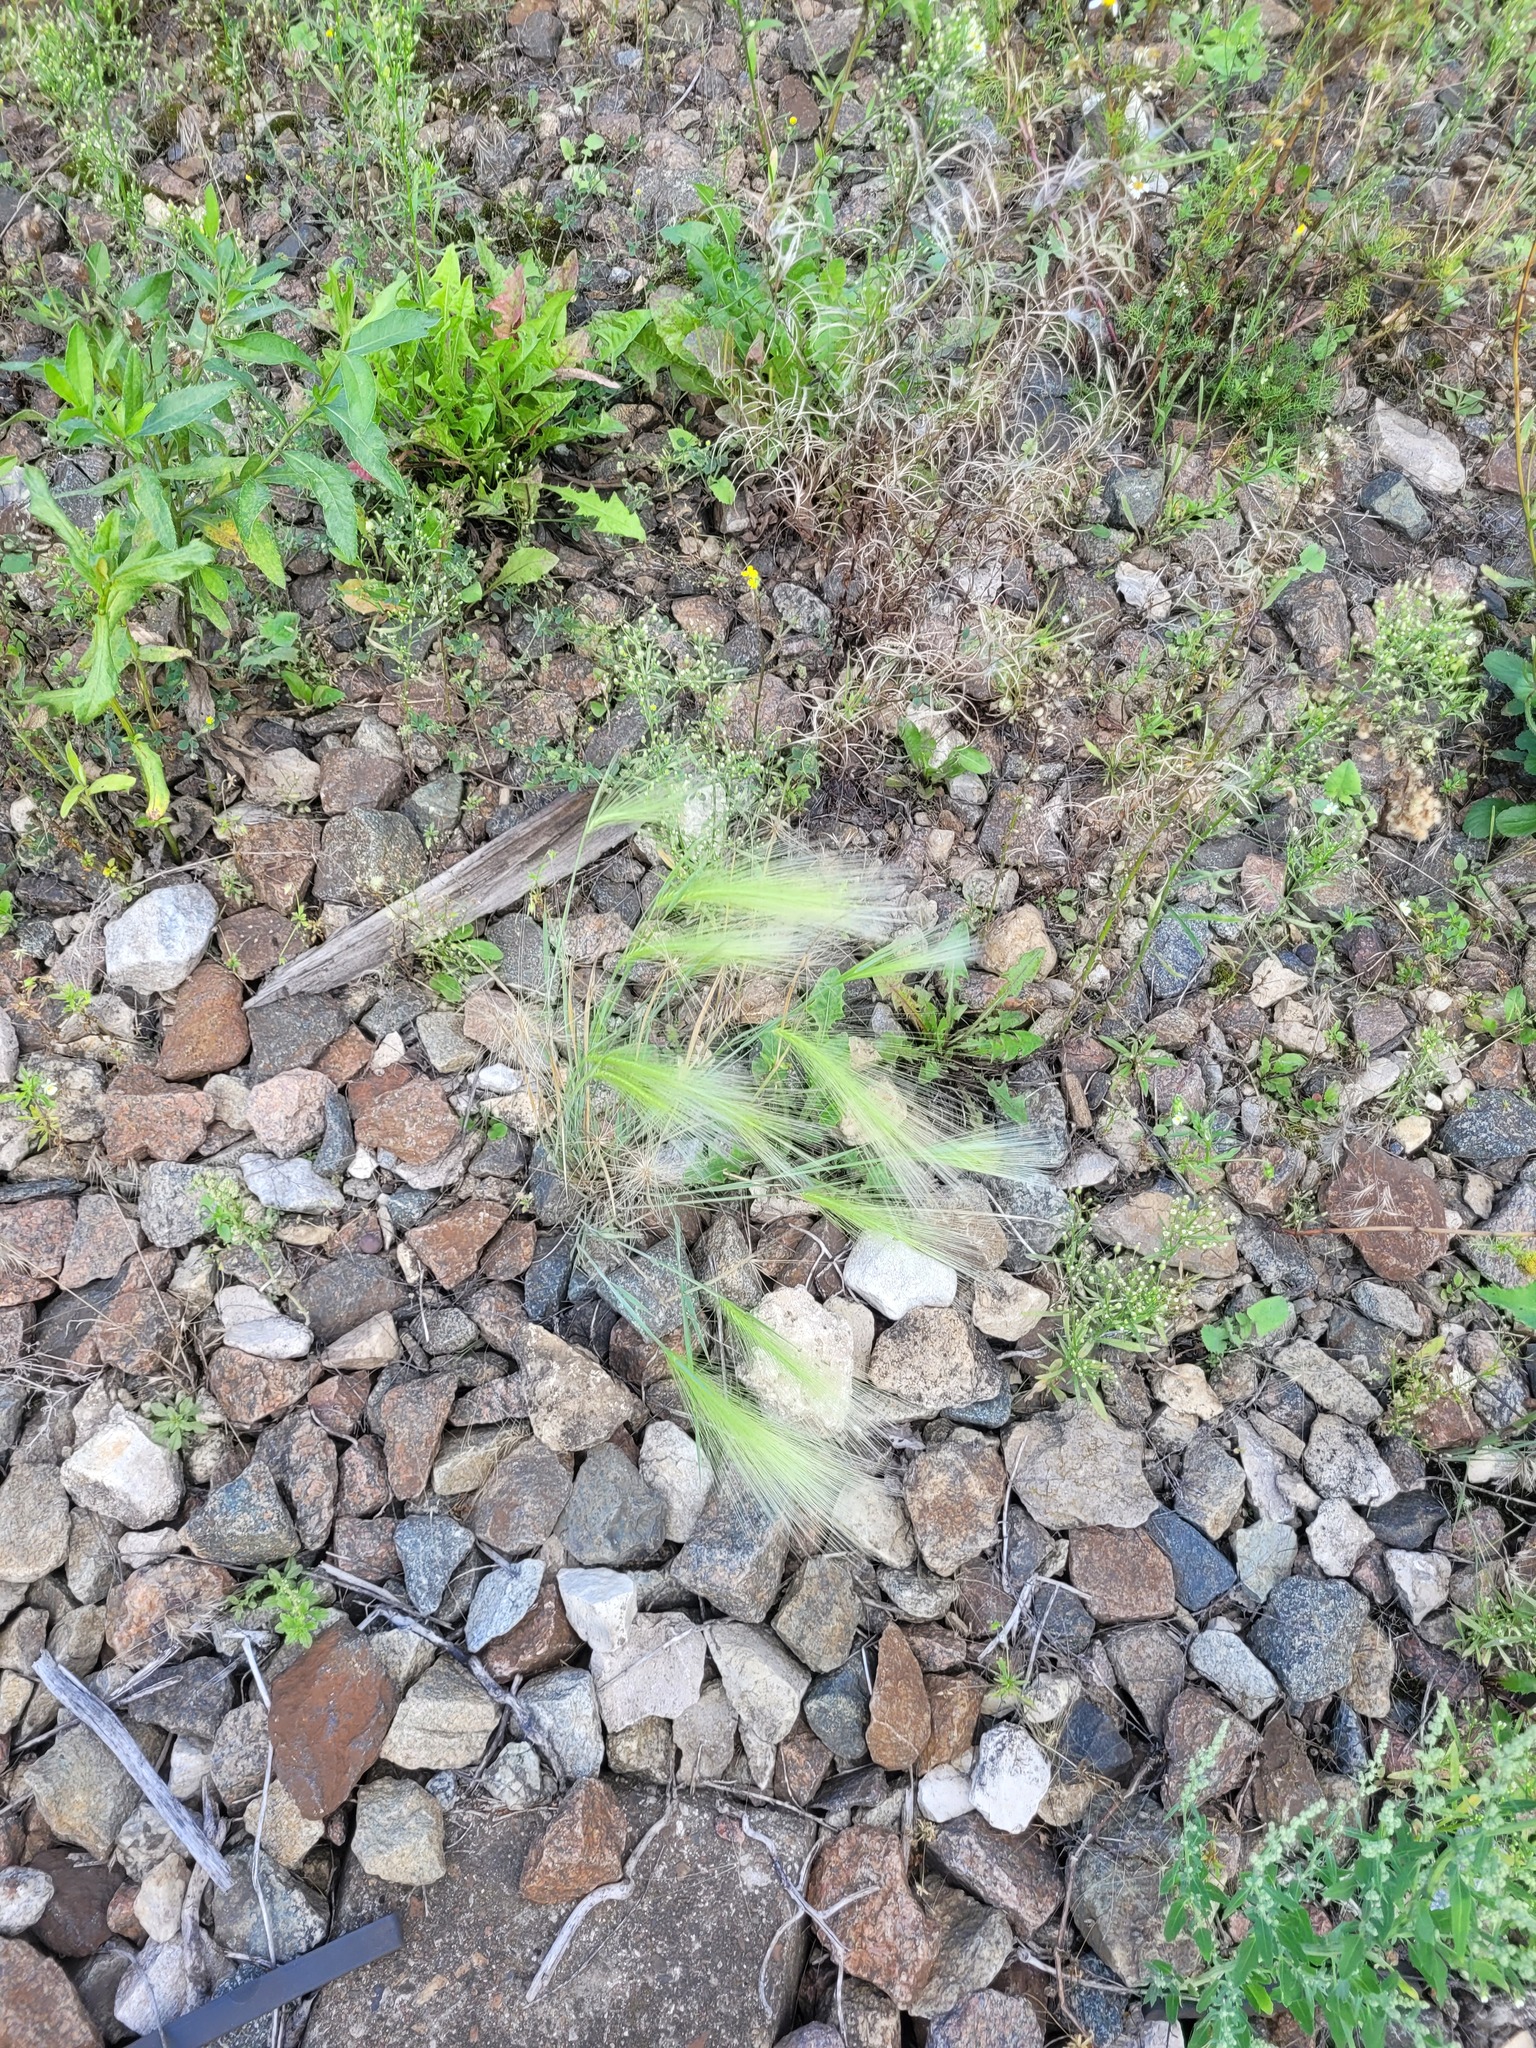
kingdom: Plantae
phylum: Tracheophyta
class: Liliopsida
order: Poales
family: Poaceae
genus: Hordeum
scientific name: Hordeum jubatum
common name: Foxtail barley
